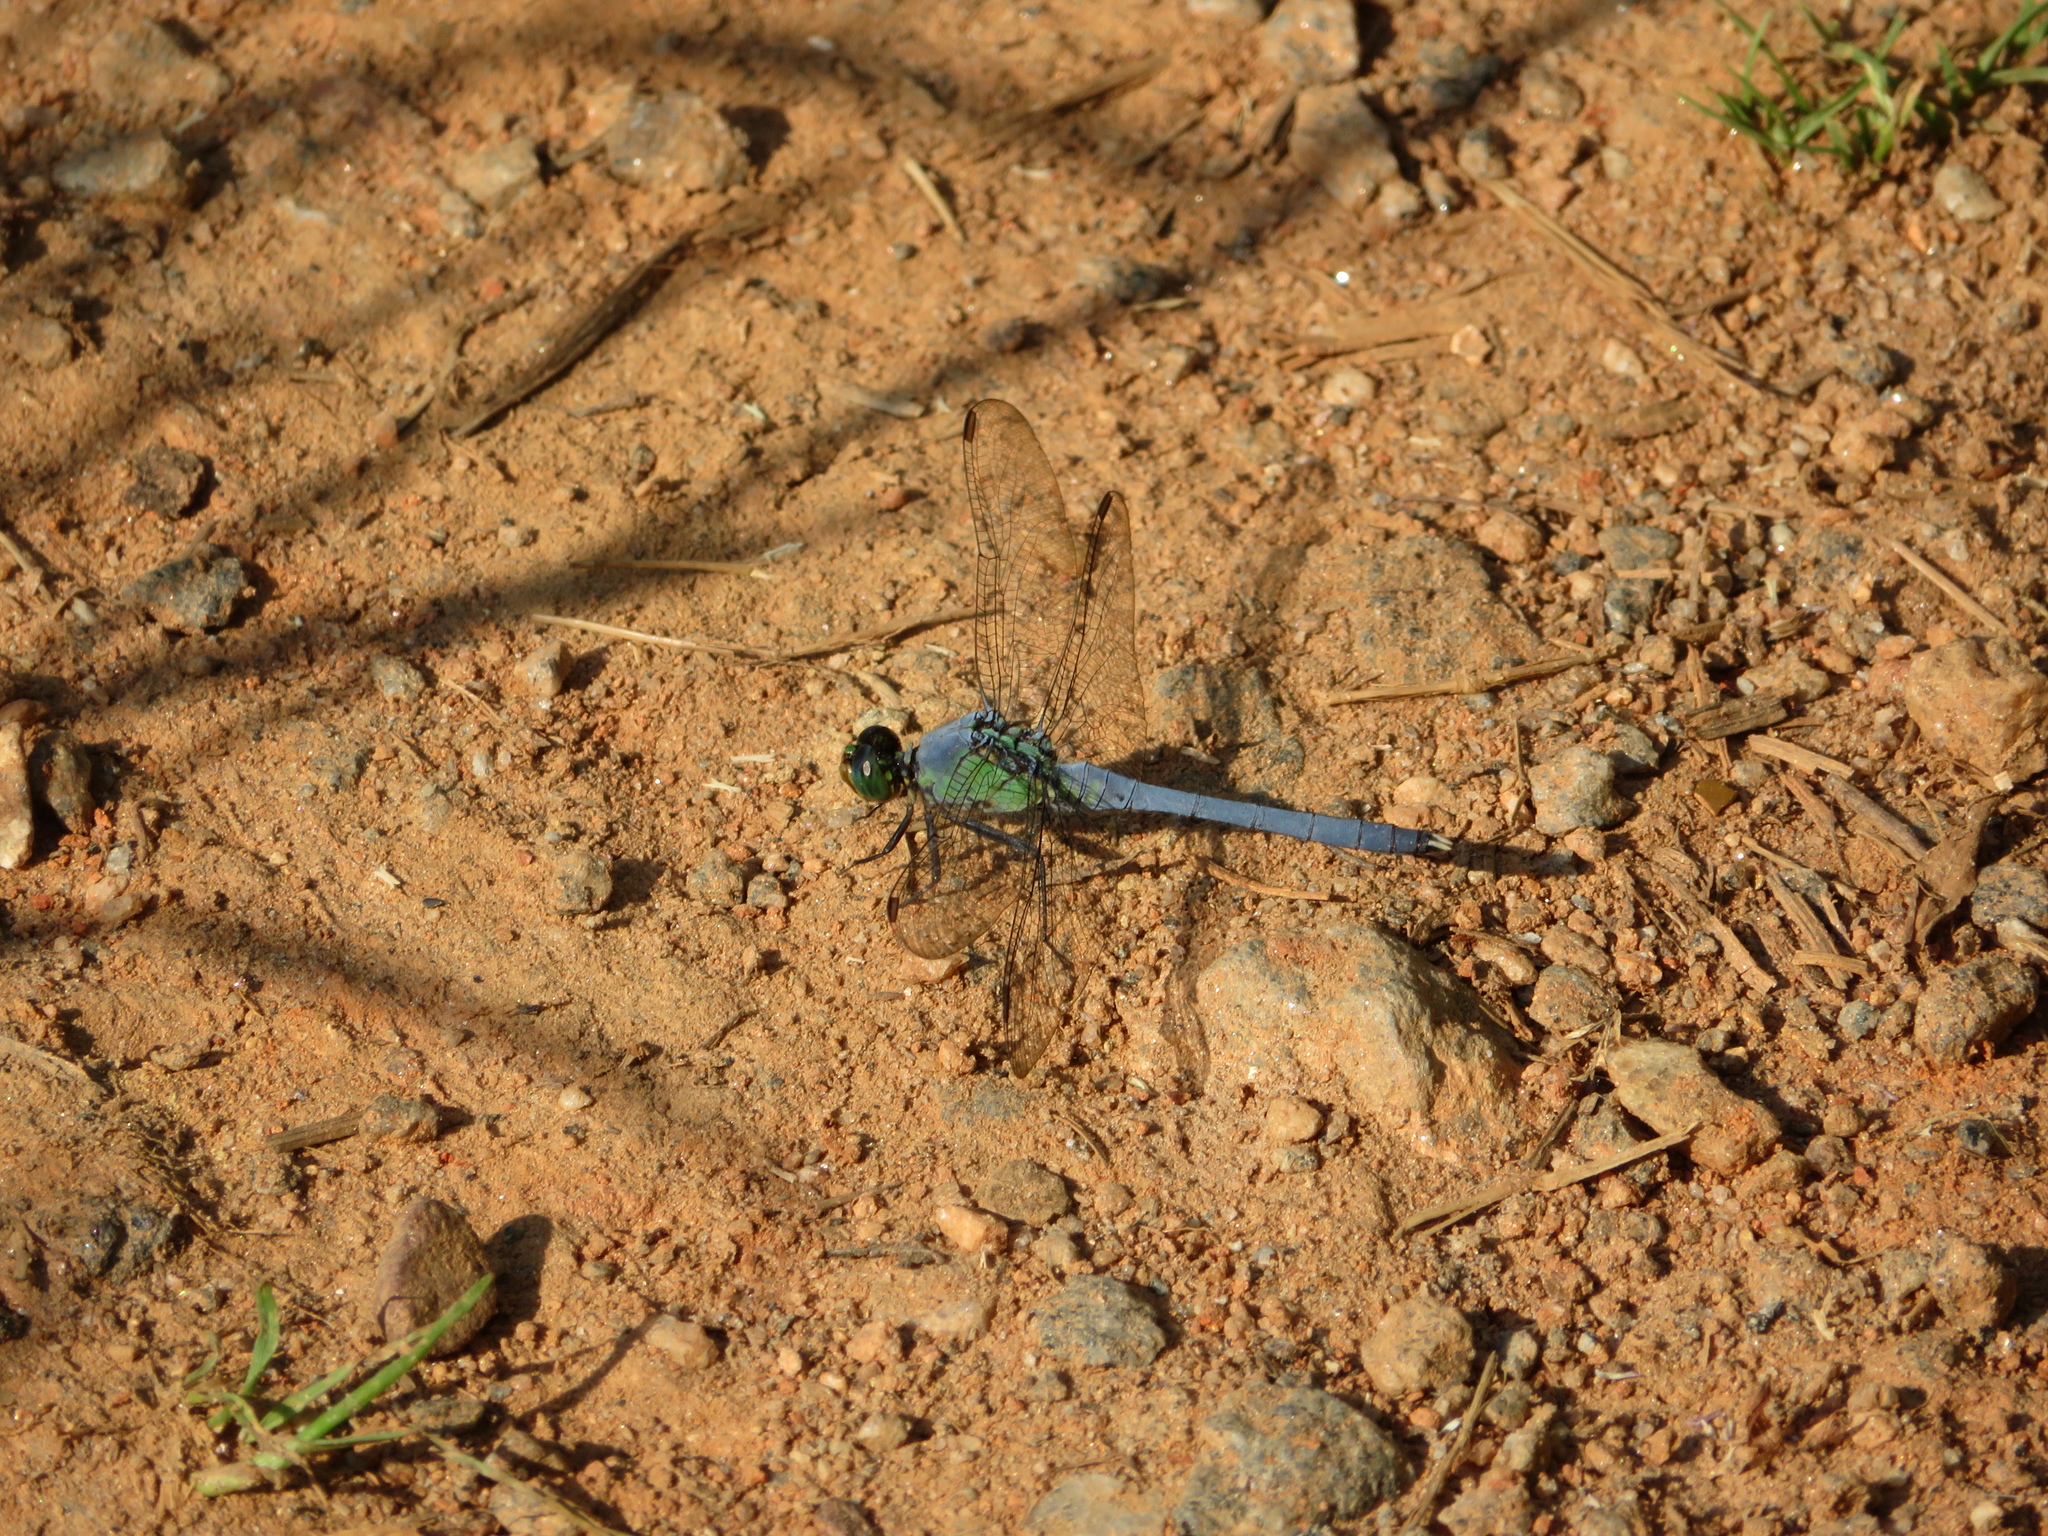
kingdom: Animalia
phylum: Arthropoda
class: Insecta
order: Odonata
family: Libellulidae
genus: Erythemis
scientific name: Erythemis simplicicollis
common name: Eastern pondhawk
